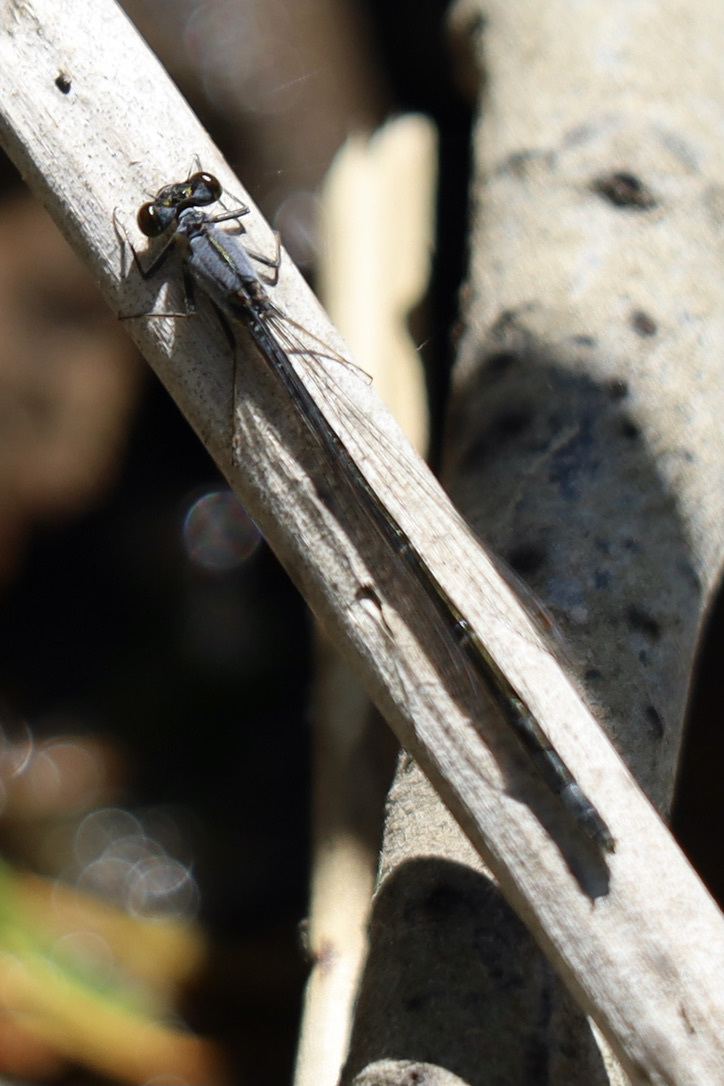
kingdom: Animalia
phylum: Arthropoda
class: Insecta
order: Odonata
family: Coenagrionidae
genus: Ischnura
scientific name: Ischnura cervula
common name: Pacific forktail
